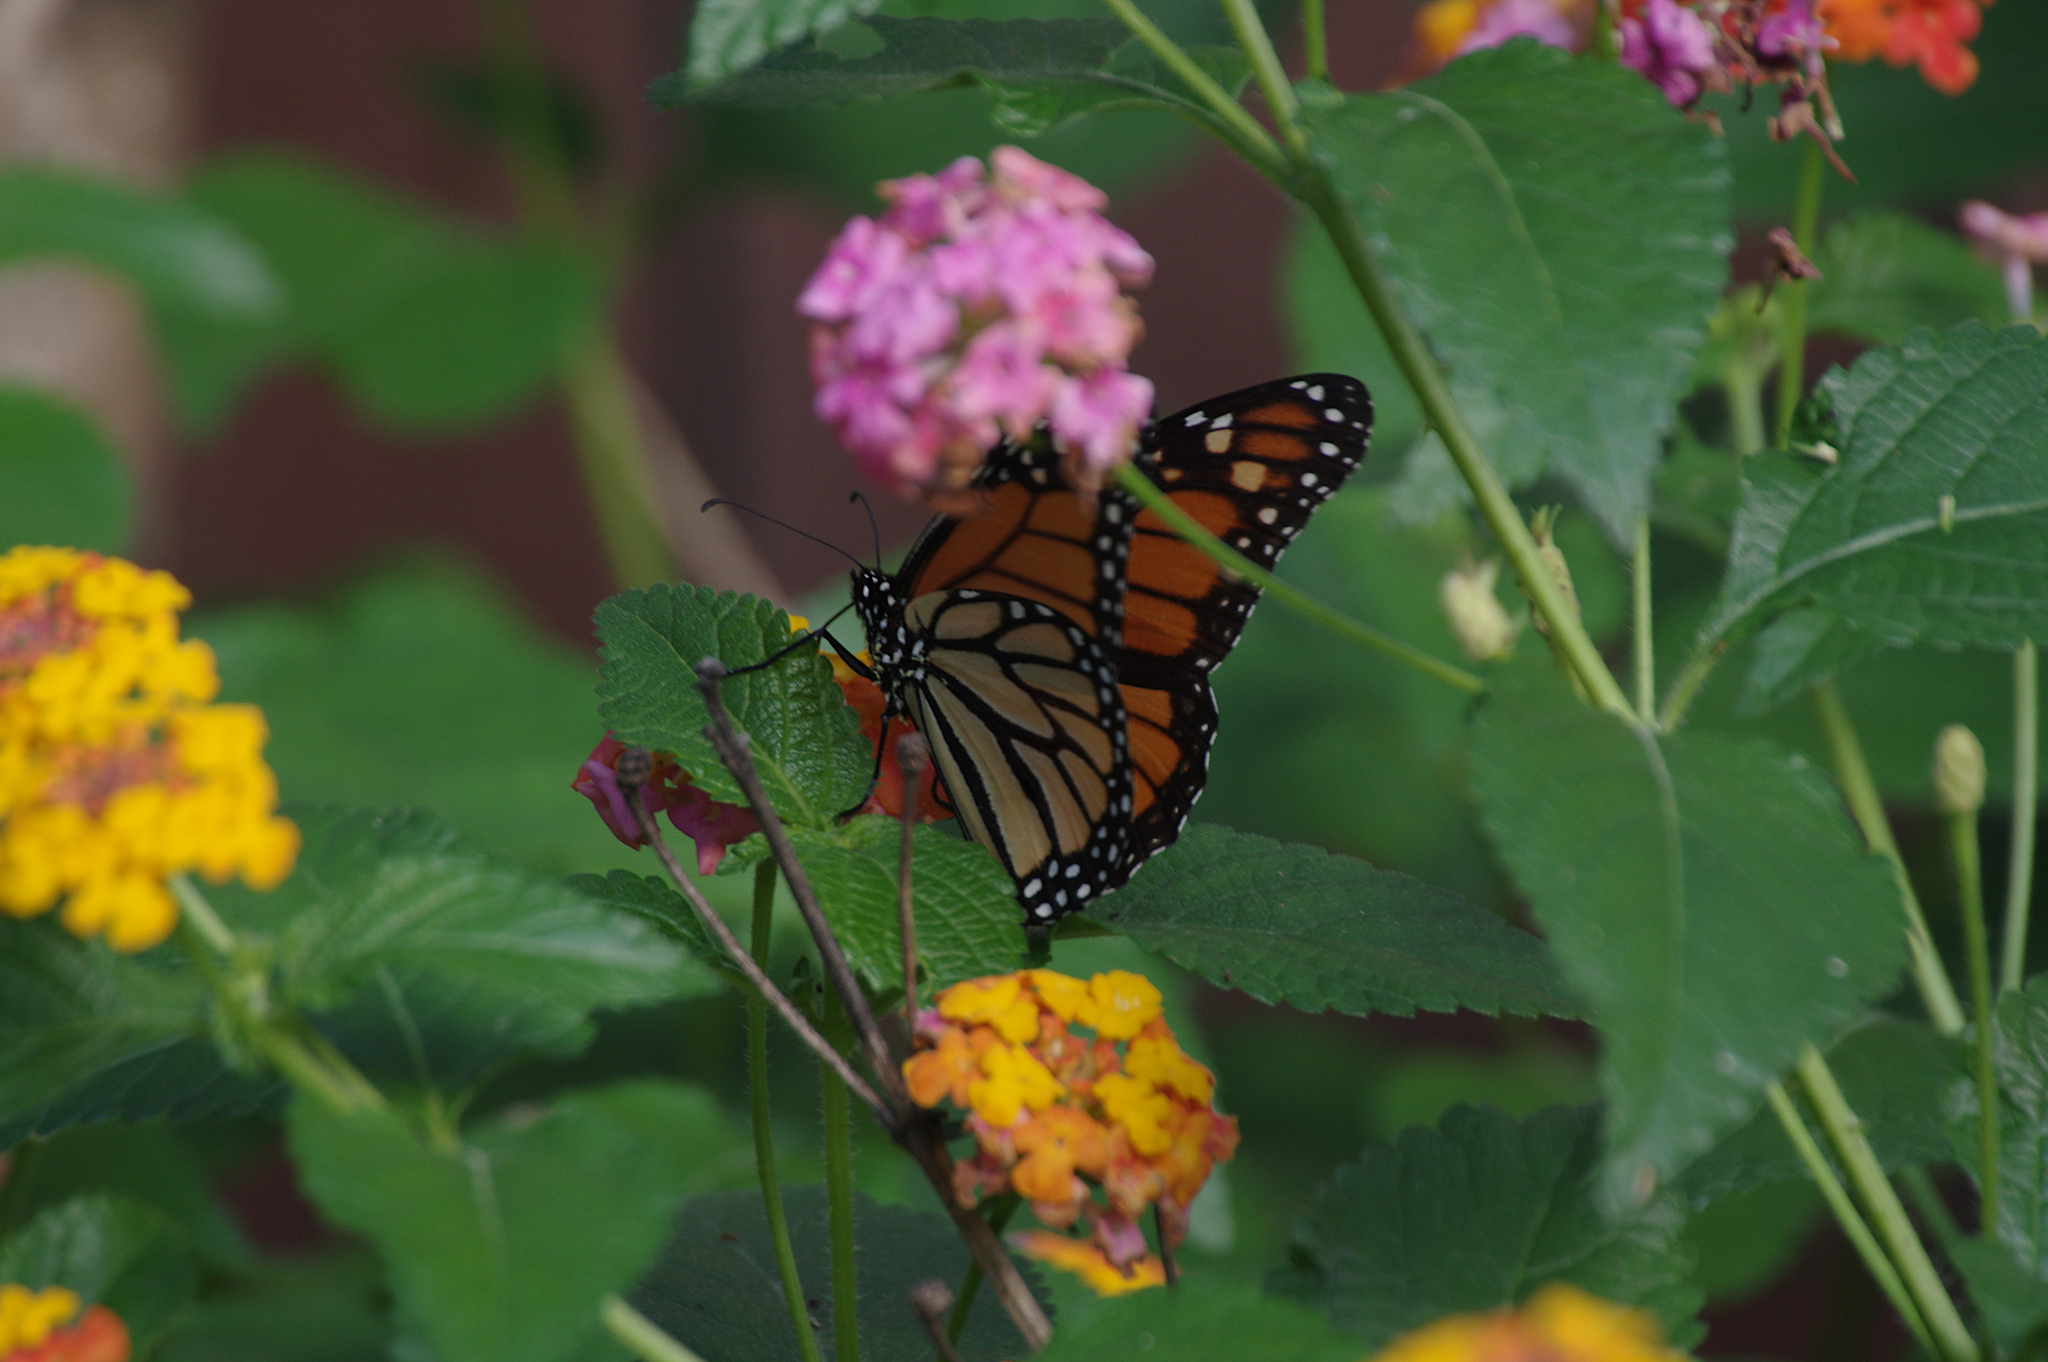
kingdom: Animalia
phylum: Arthropoda
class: Insecta
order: Lepidoptera
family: Nymphalidae
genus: Danaus
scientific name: Danaus plexippus
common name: Monarch
